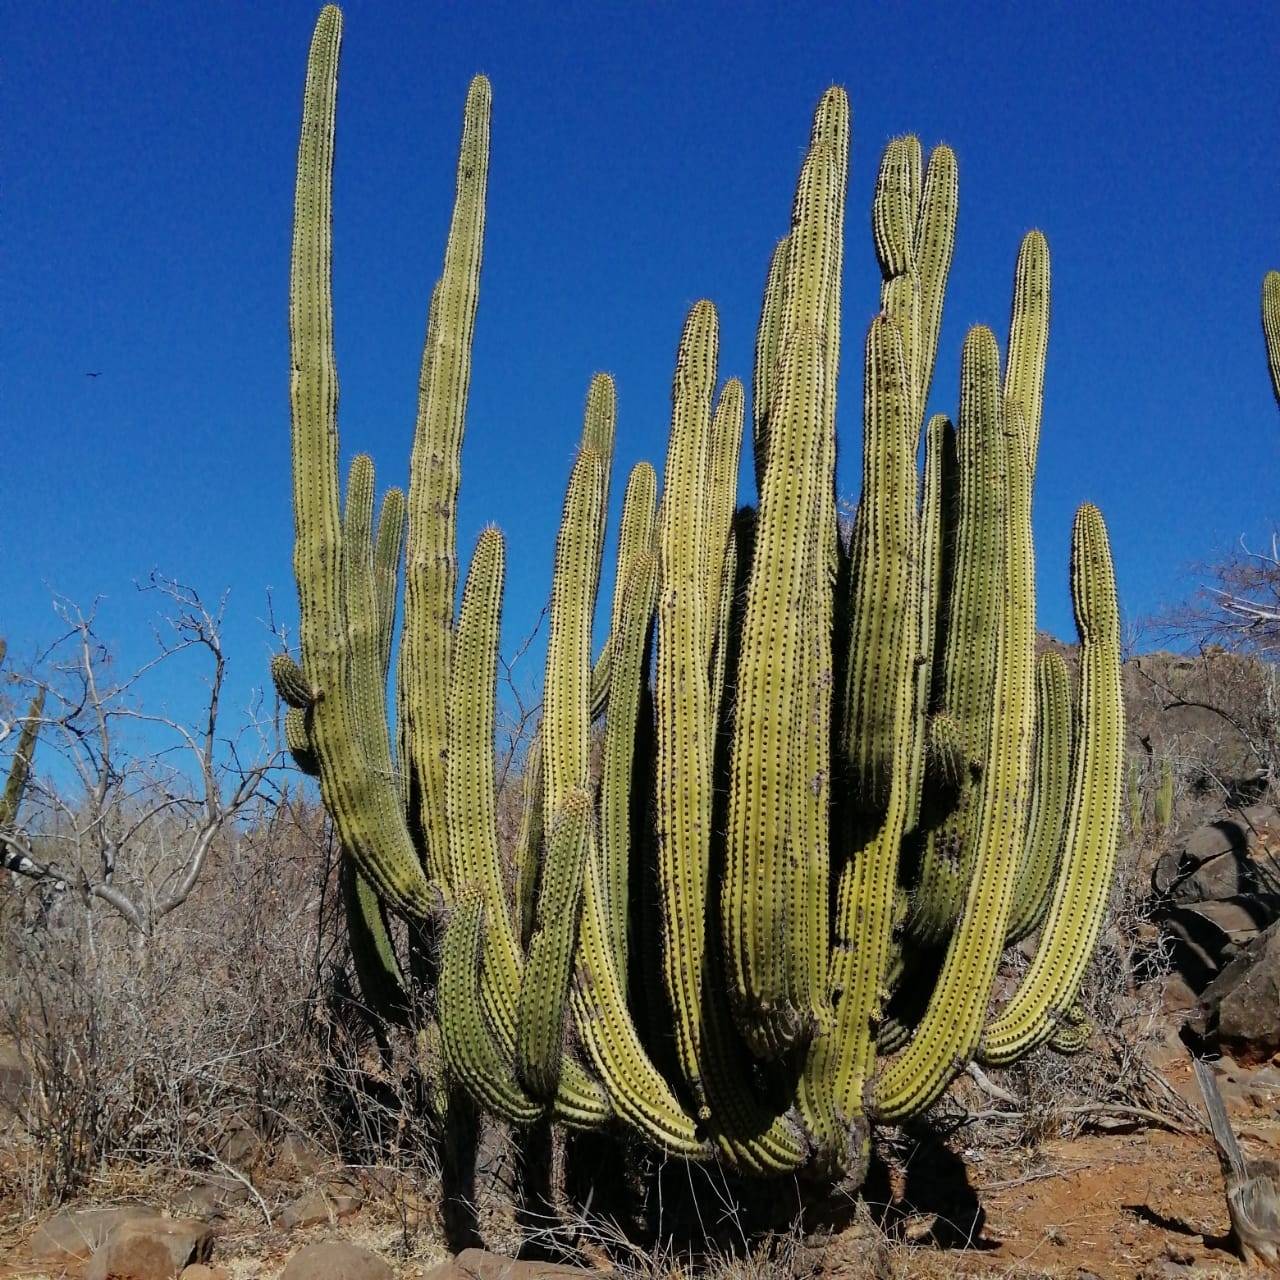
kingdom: Plantae
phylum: Tracheophyta
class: Magnoliopsida
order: Caryophyllales
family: Cactaceae
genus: Stenocereus
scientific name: Stenocereus thurberi
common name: Organ pipe cactus
